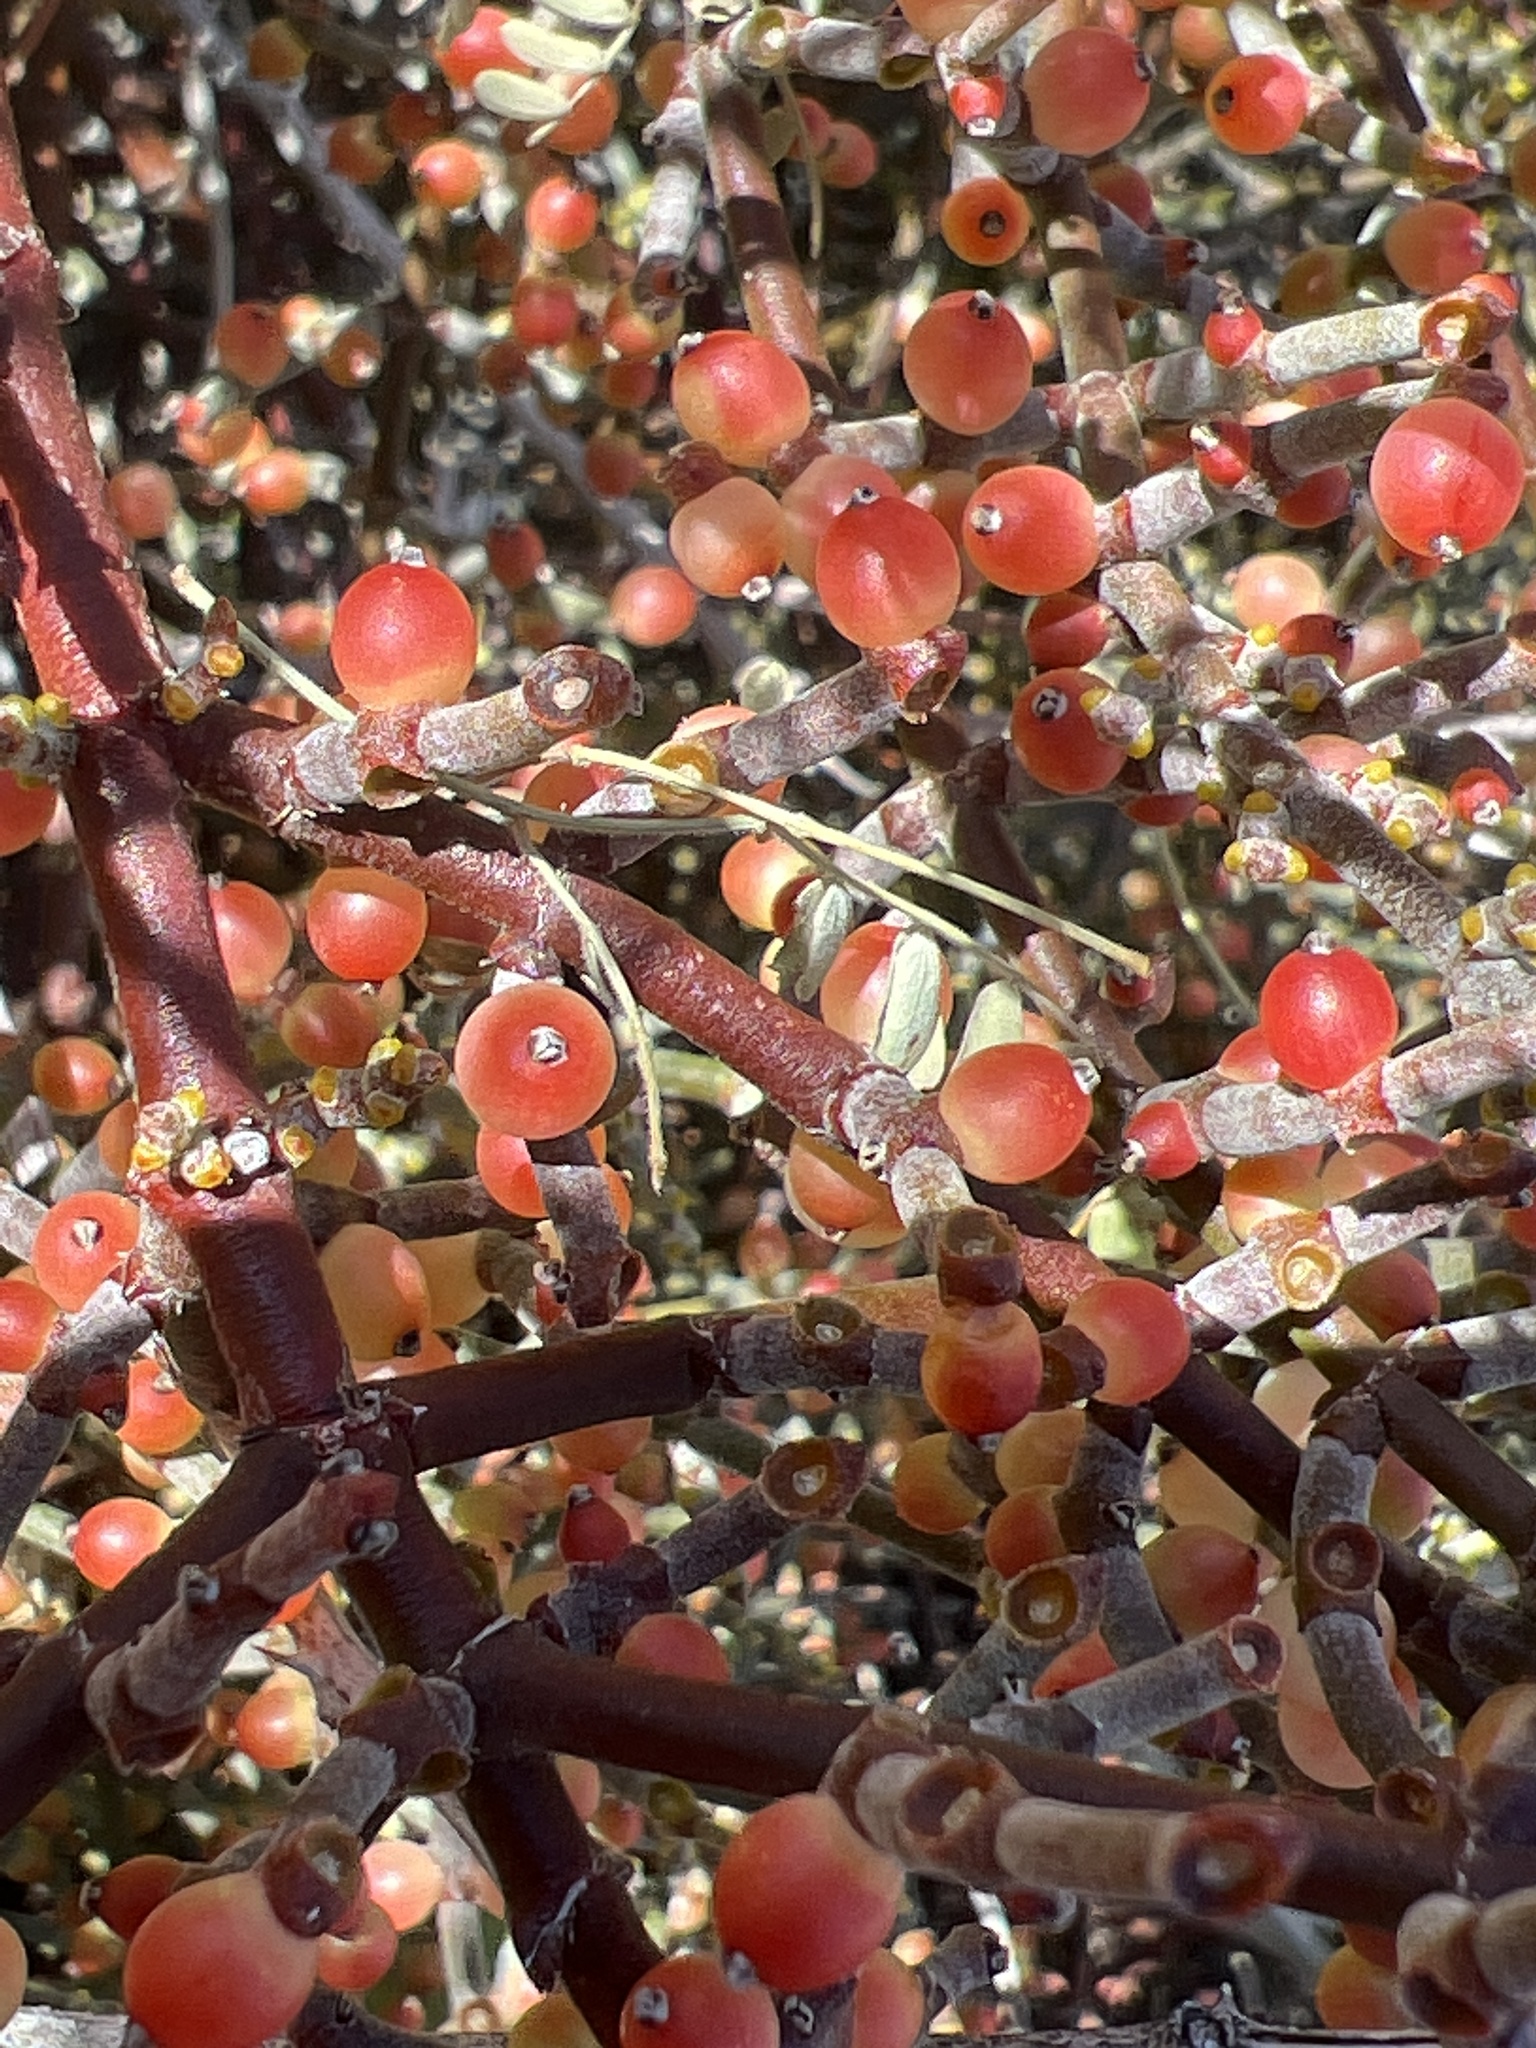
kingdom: Plantae
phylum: Tracheophyta
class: Magnoliopsida
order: Santalales
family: Viscaceae
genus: Phoradendron
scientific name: Phoradendron californicum
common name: Acacia mistletoe
